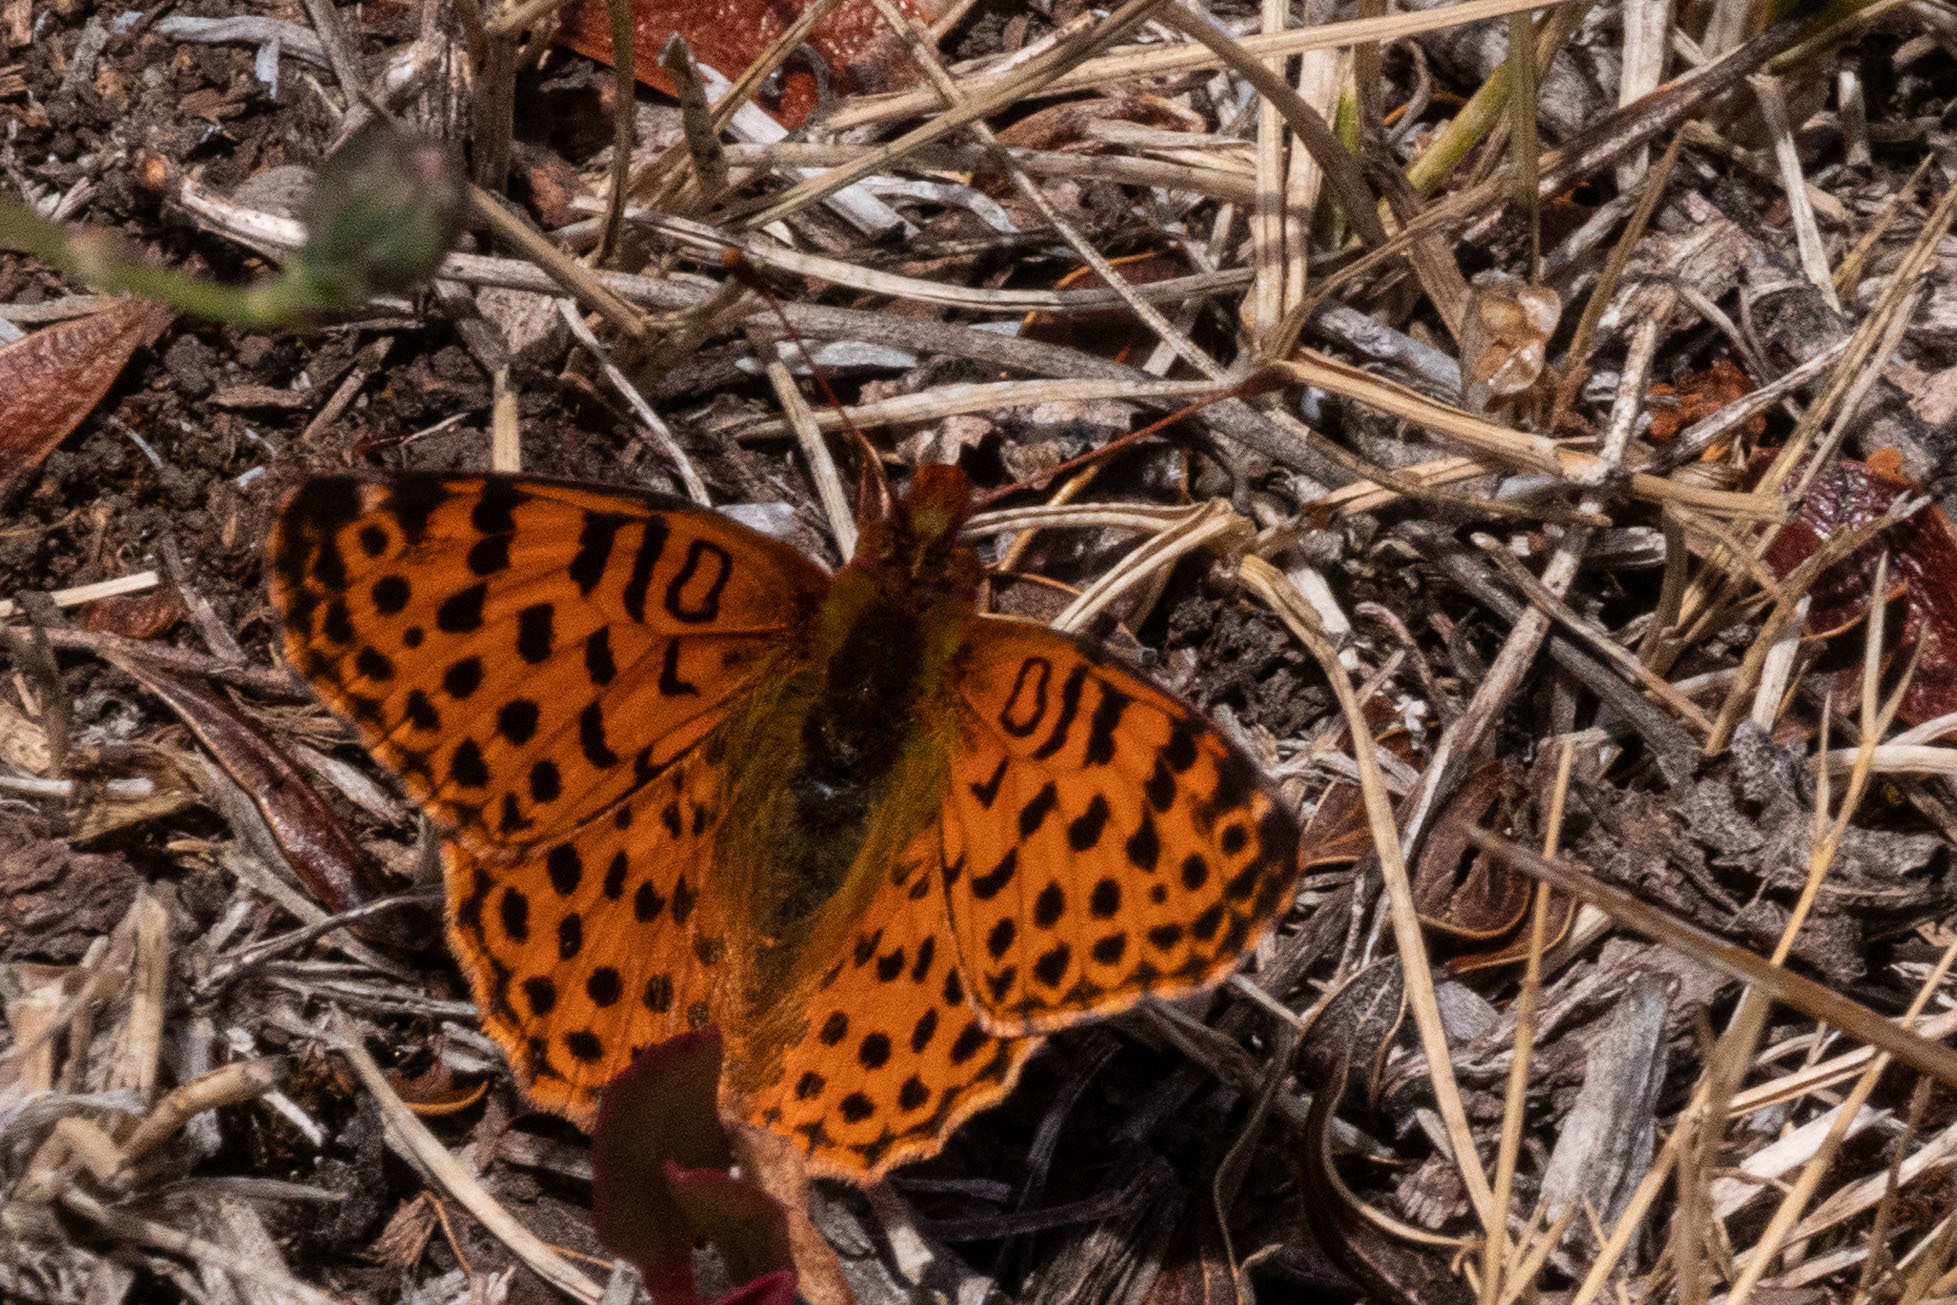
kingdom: Animalia
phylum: Arthropoda
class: Insecta
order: Lepidoptera
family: Nymphalidae
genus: Issoria
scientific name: Issoria Yramea cytheris
